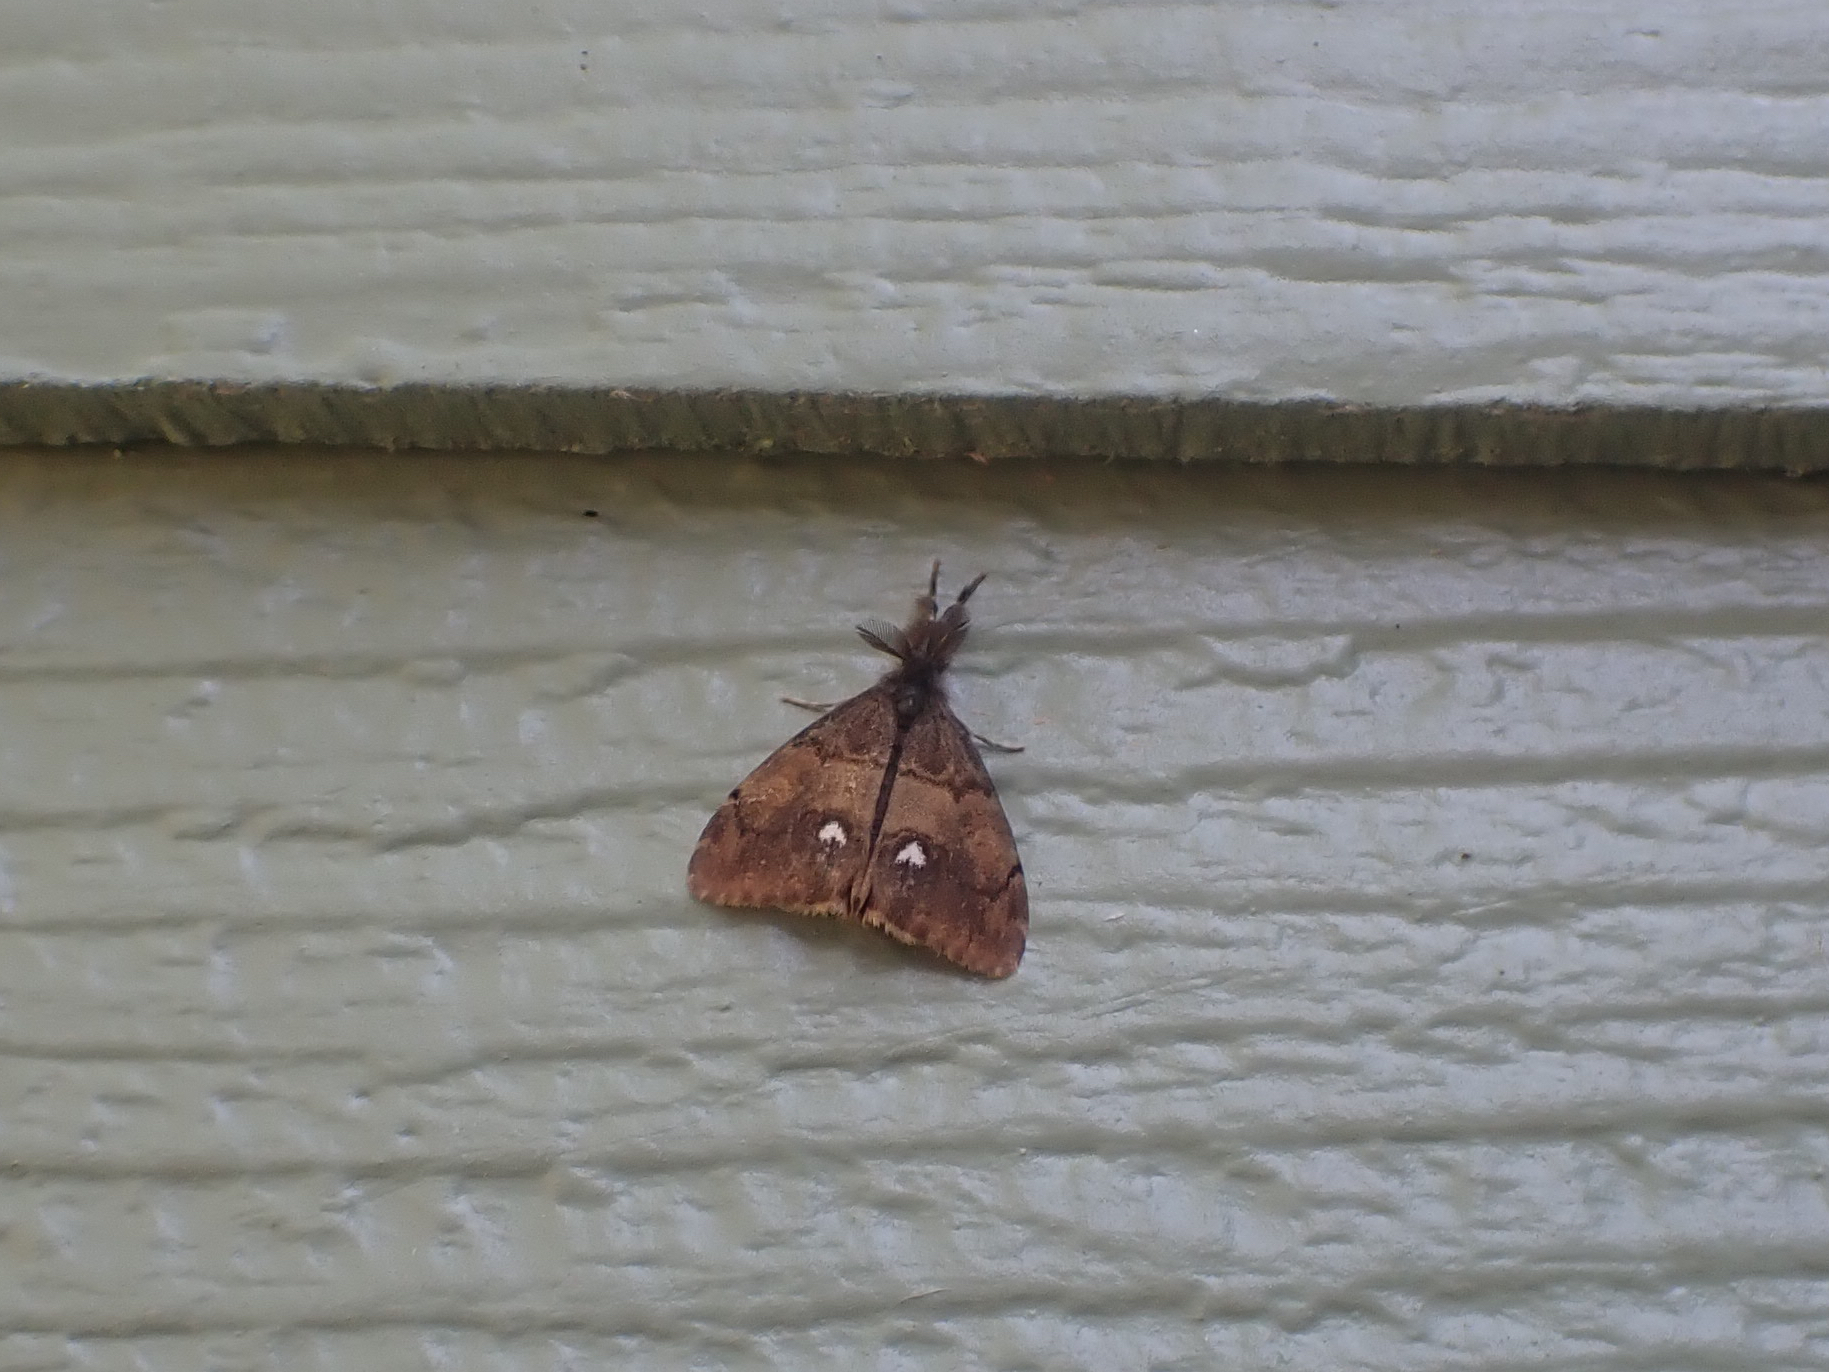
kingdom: Animalia
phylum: Arthropoda
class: Insecta
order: Lepidoptera
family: Erebidae
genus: Orgyia
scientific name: Orgyia antiqua
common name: Vapourer
